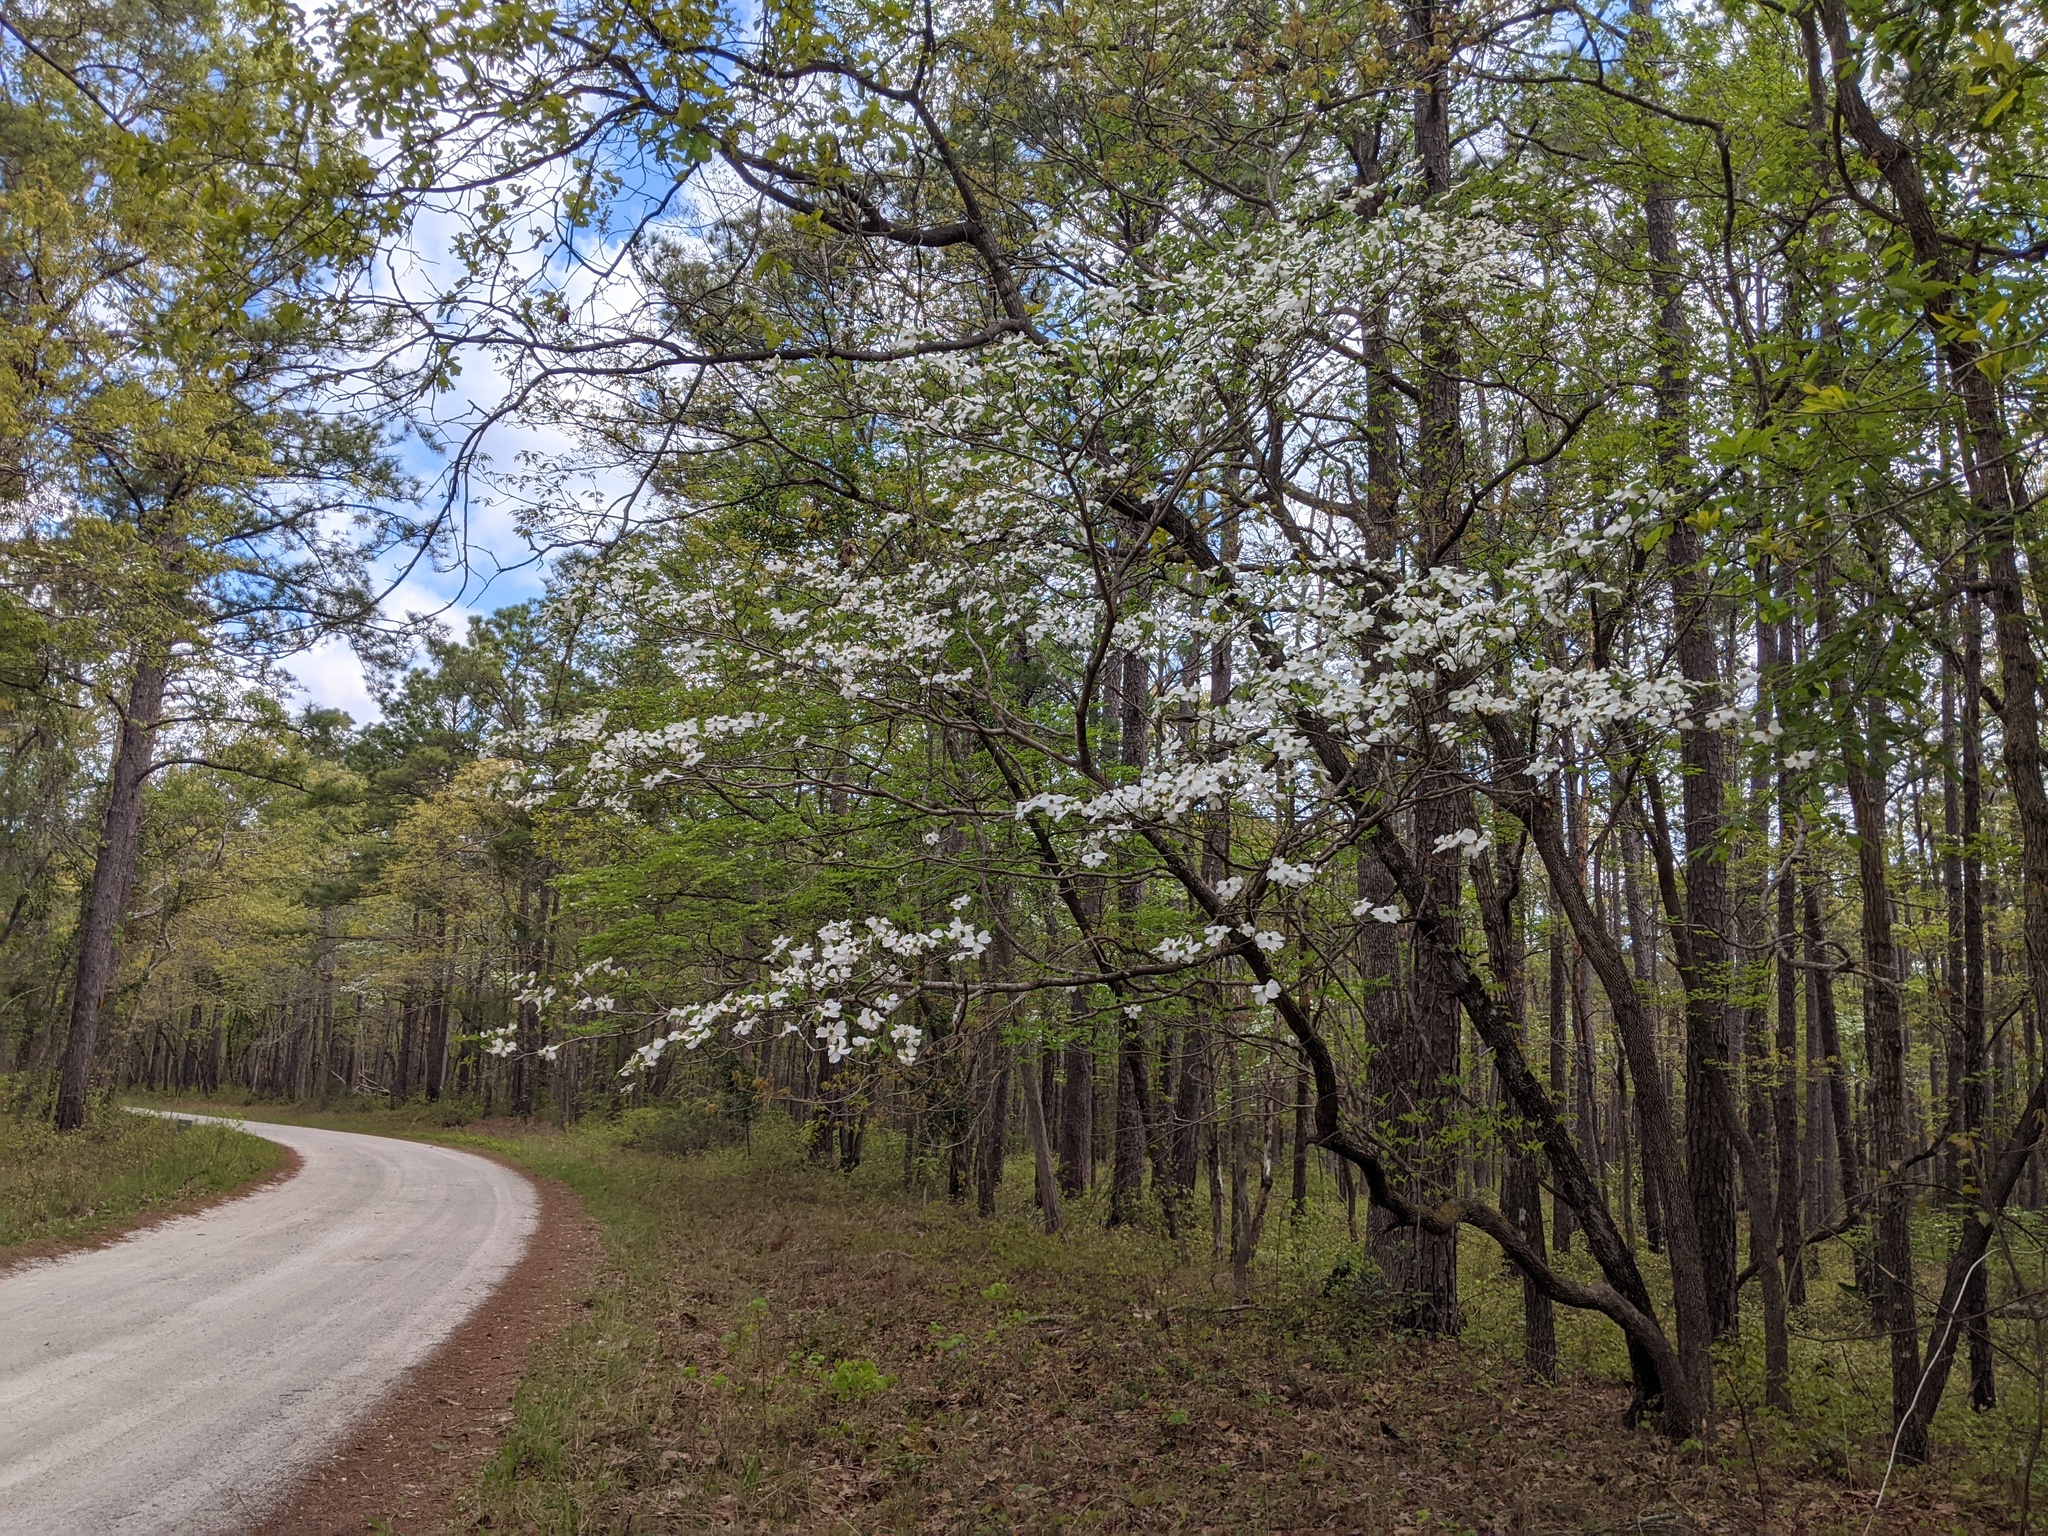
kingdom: Plantae
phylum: Tracheophyta
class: Magnoliopsida
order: Cornales
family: Cornaceae
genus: Cornus
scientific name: Cornus florida
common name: Flowering dogwood
